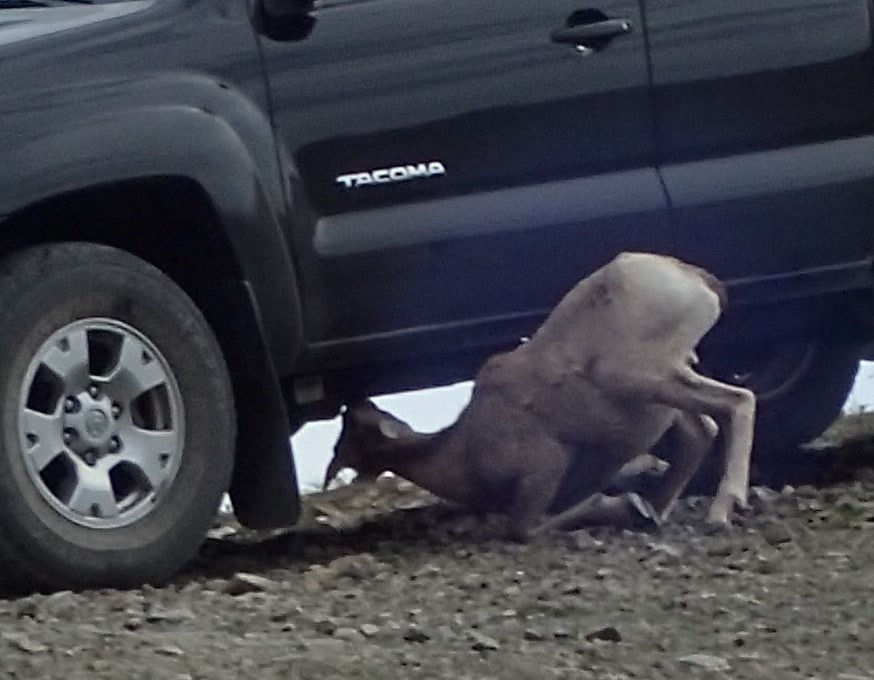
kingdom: Animalia
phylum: Chordata
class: Mammalia
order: Artiodactyla
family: Bovidae
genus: Ovis
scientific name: Ovis canadensis
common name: Bighorn sheep
